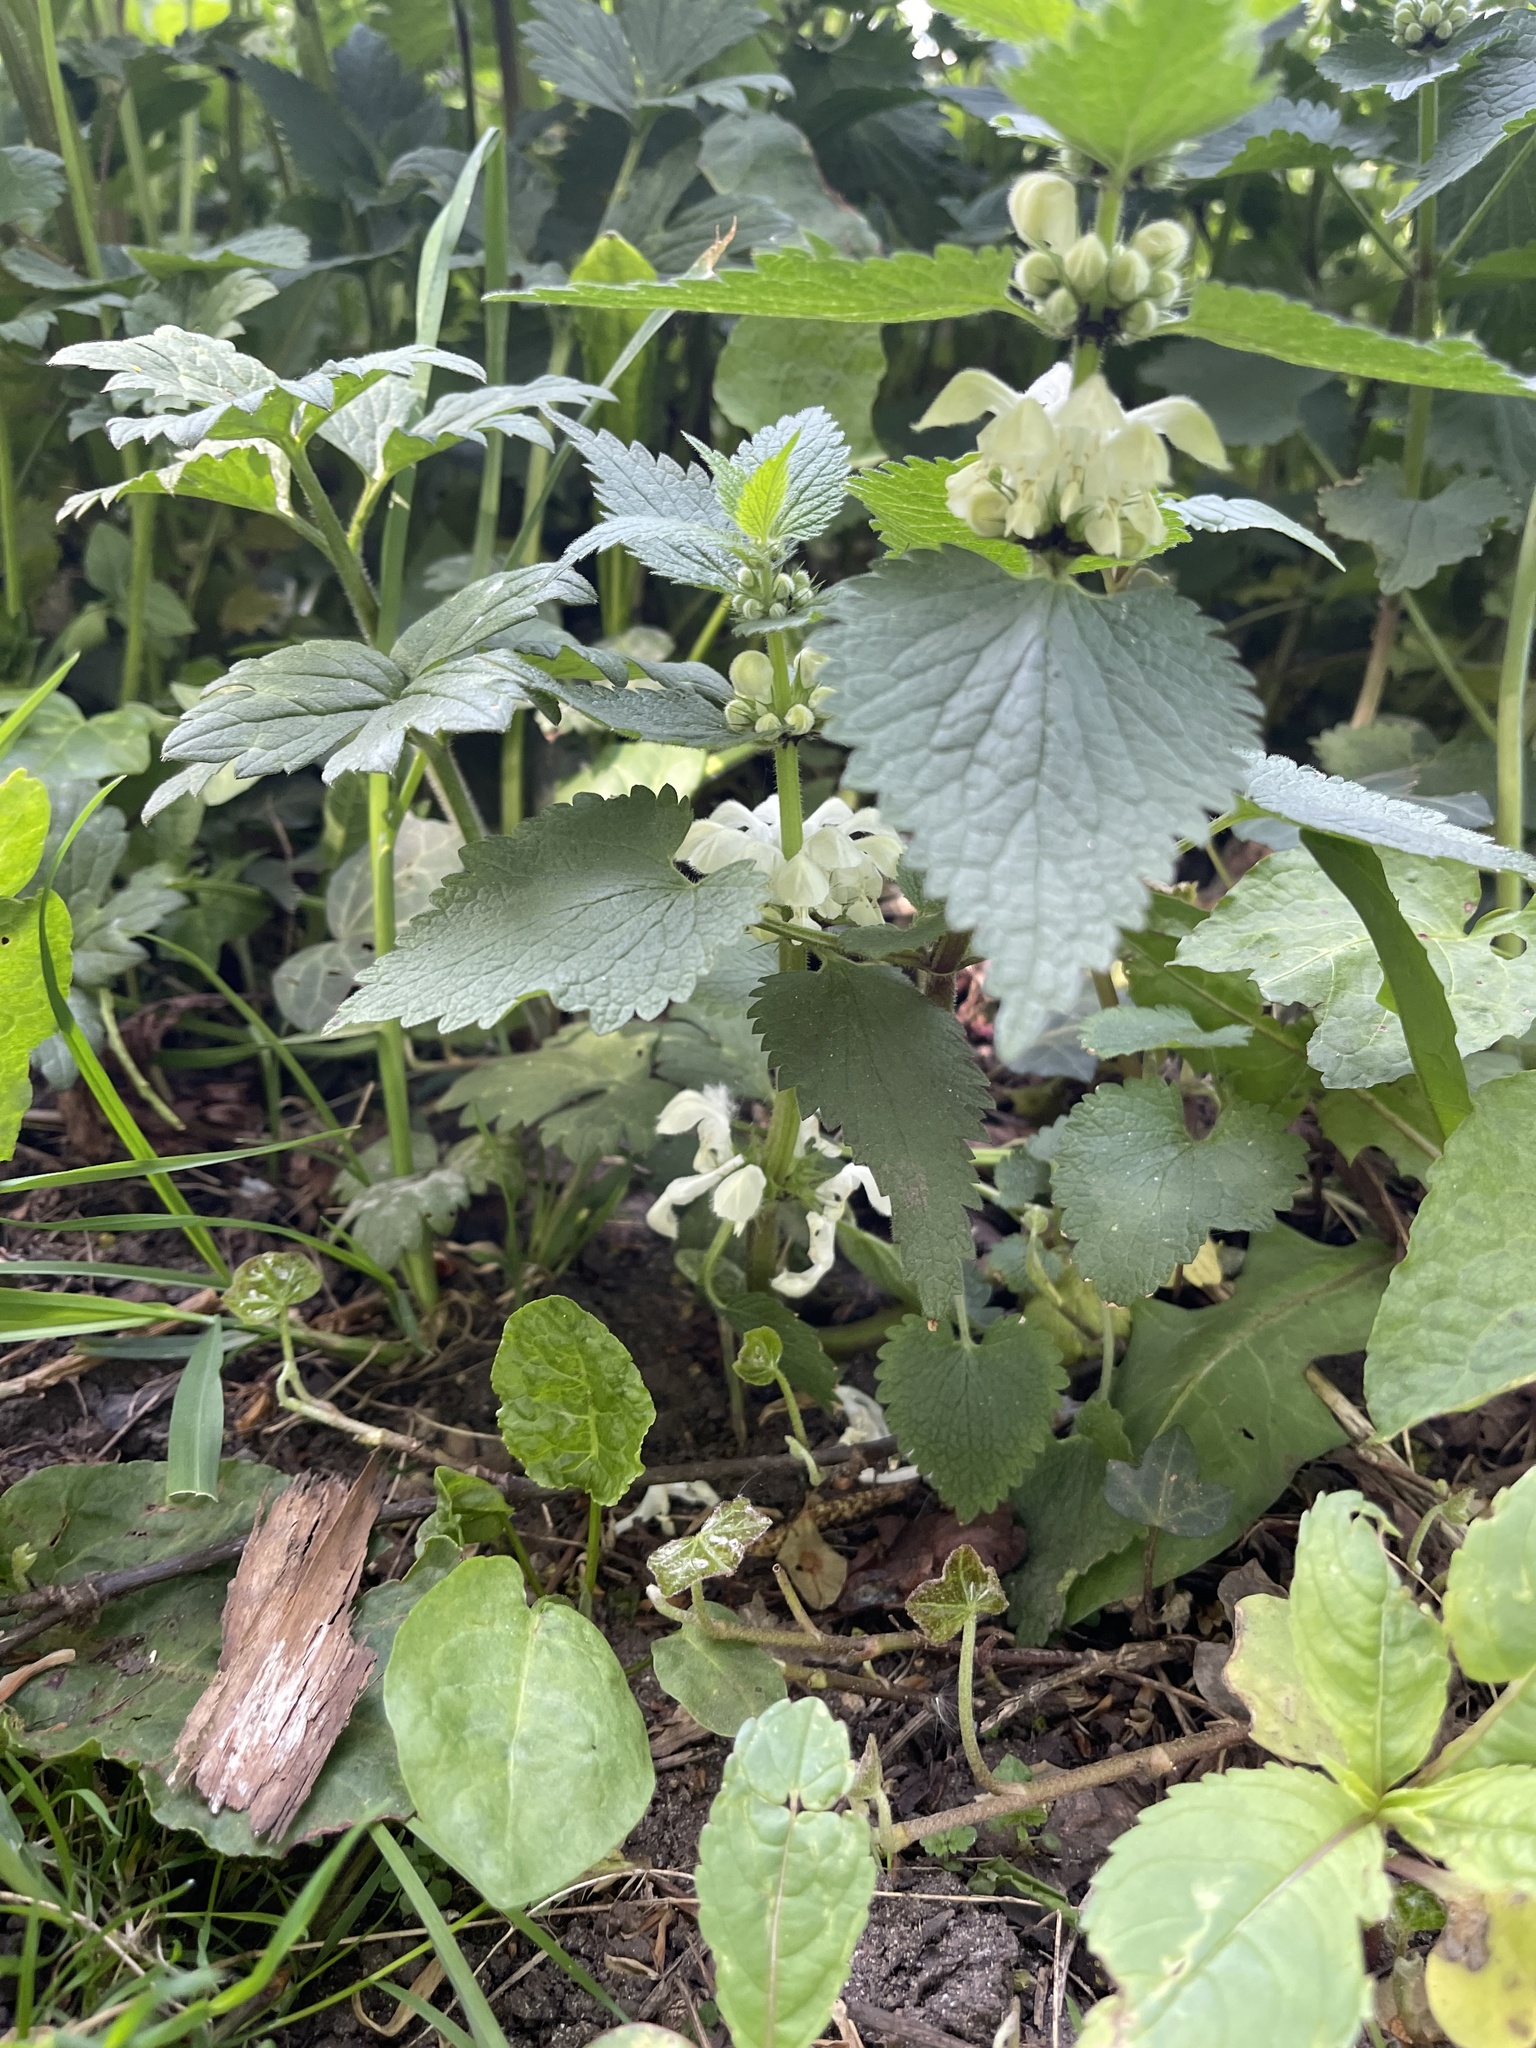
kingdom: Plantae
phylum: Tracheophyta
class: Magnoliopsida
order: Lamiales
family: Lamiaceae
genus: Lamium
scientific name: Lamium album
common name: White dead-nettle
